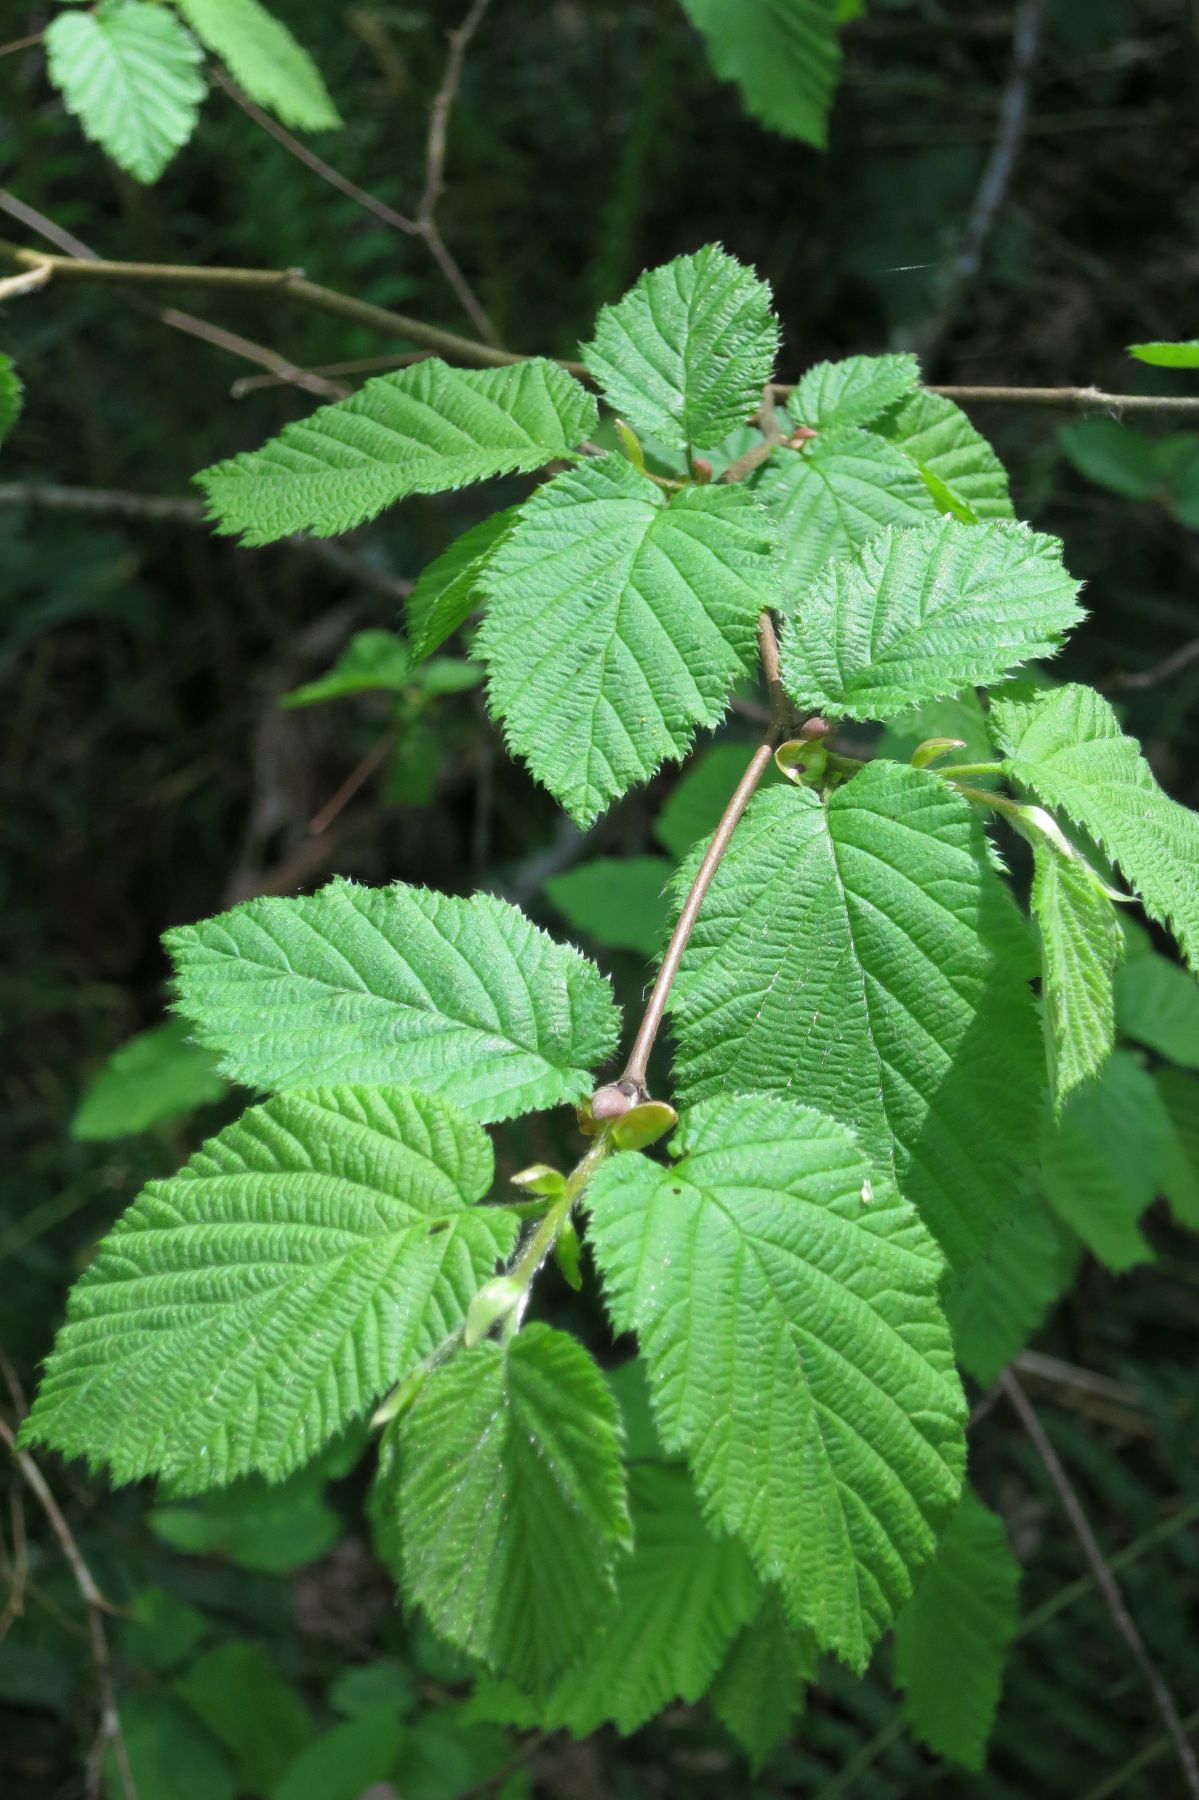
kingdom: Plantae
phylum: Tracheophyta
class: Magnoliopsida
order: Fagales
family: Betulaceae
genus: Corylus
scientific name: Corylus cornuta
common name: Beaked hazel
